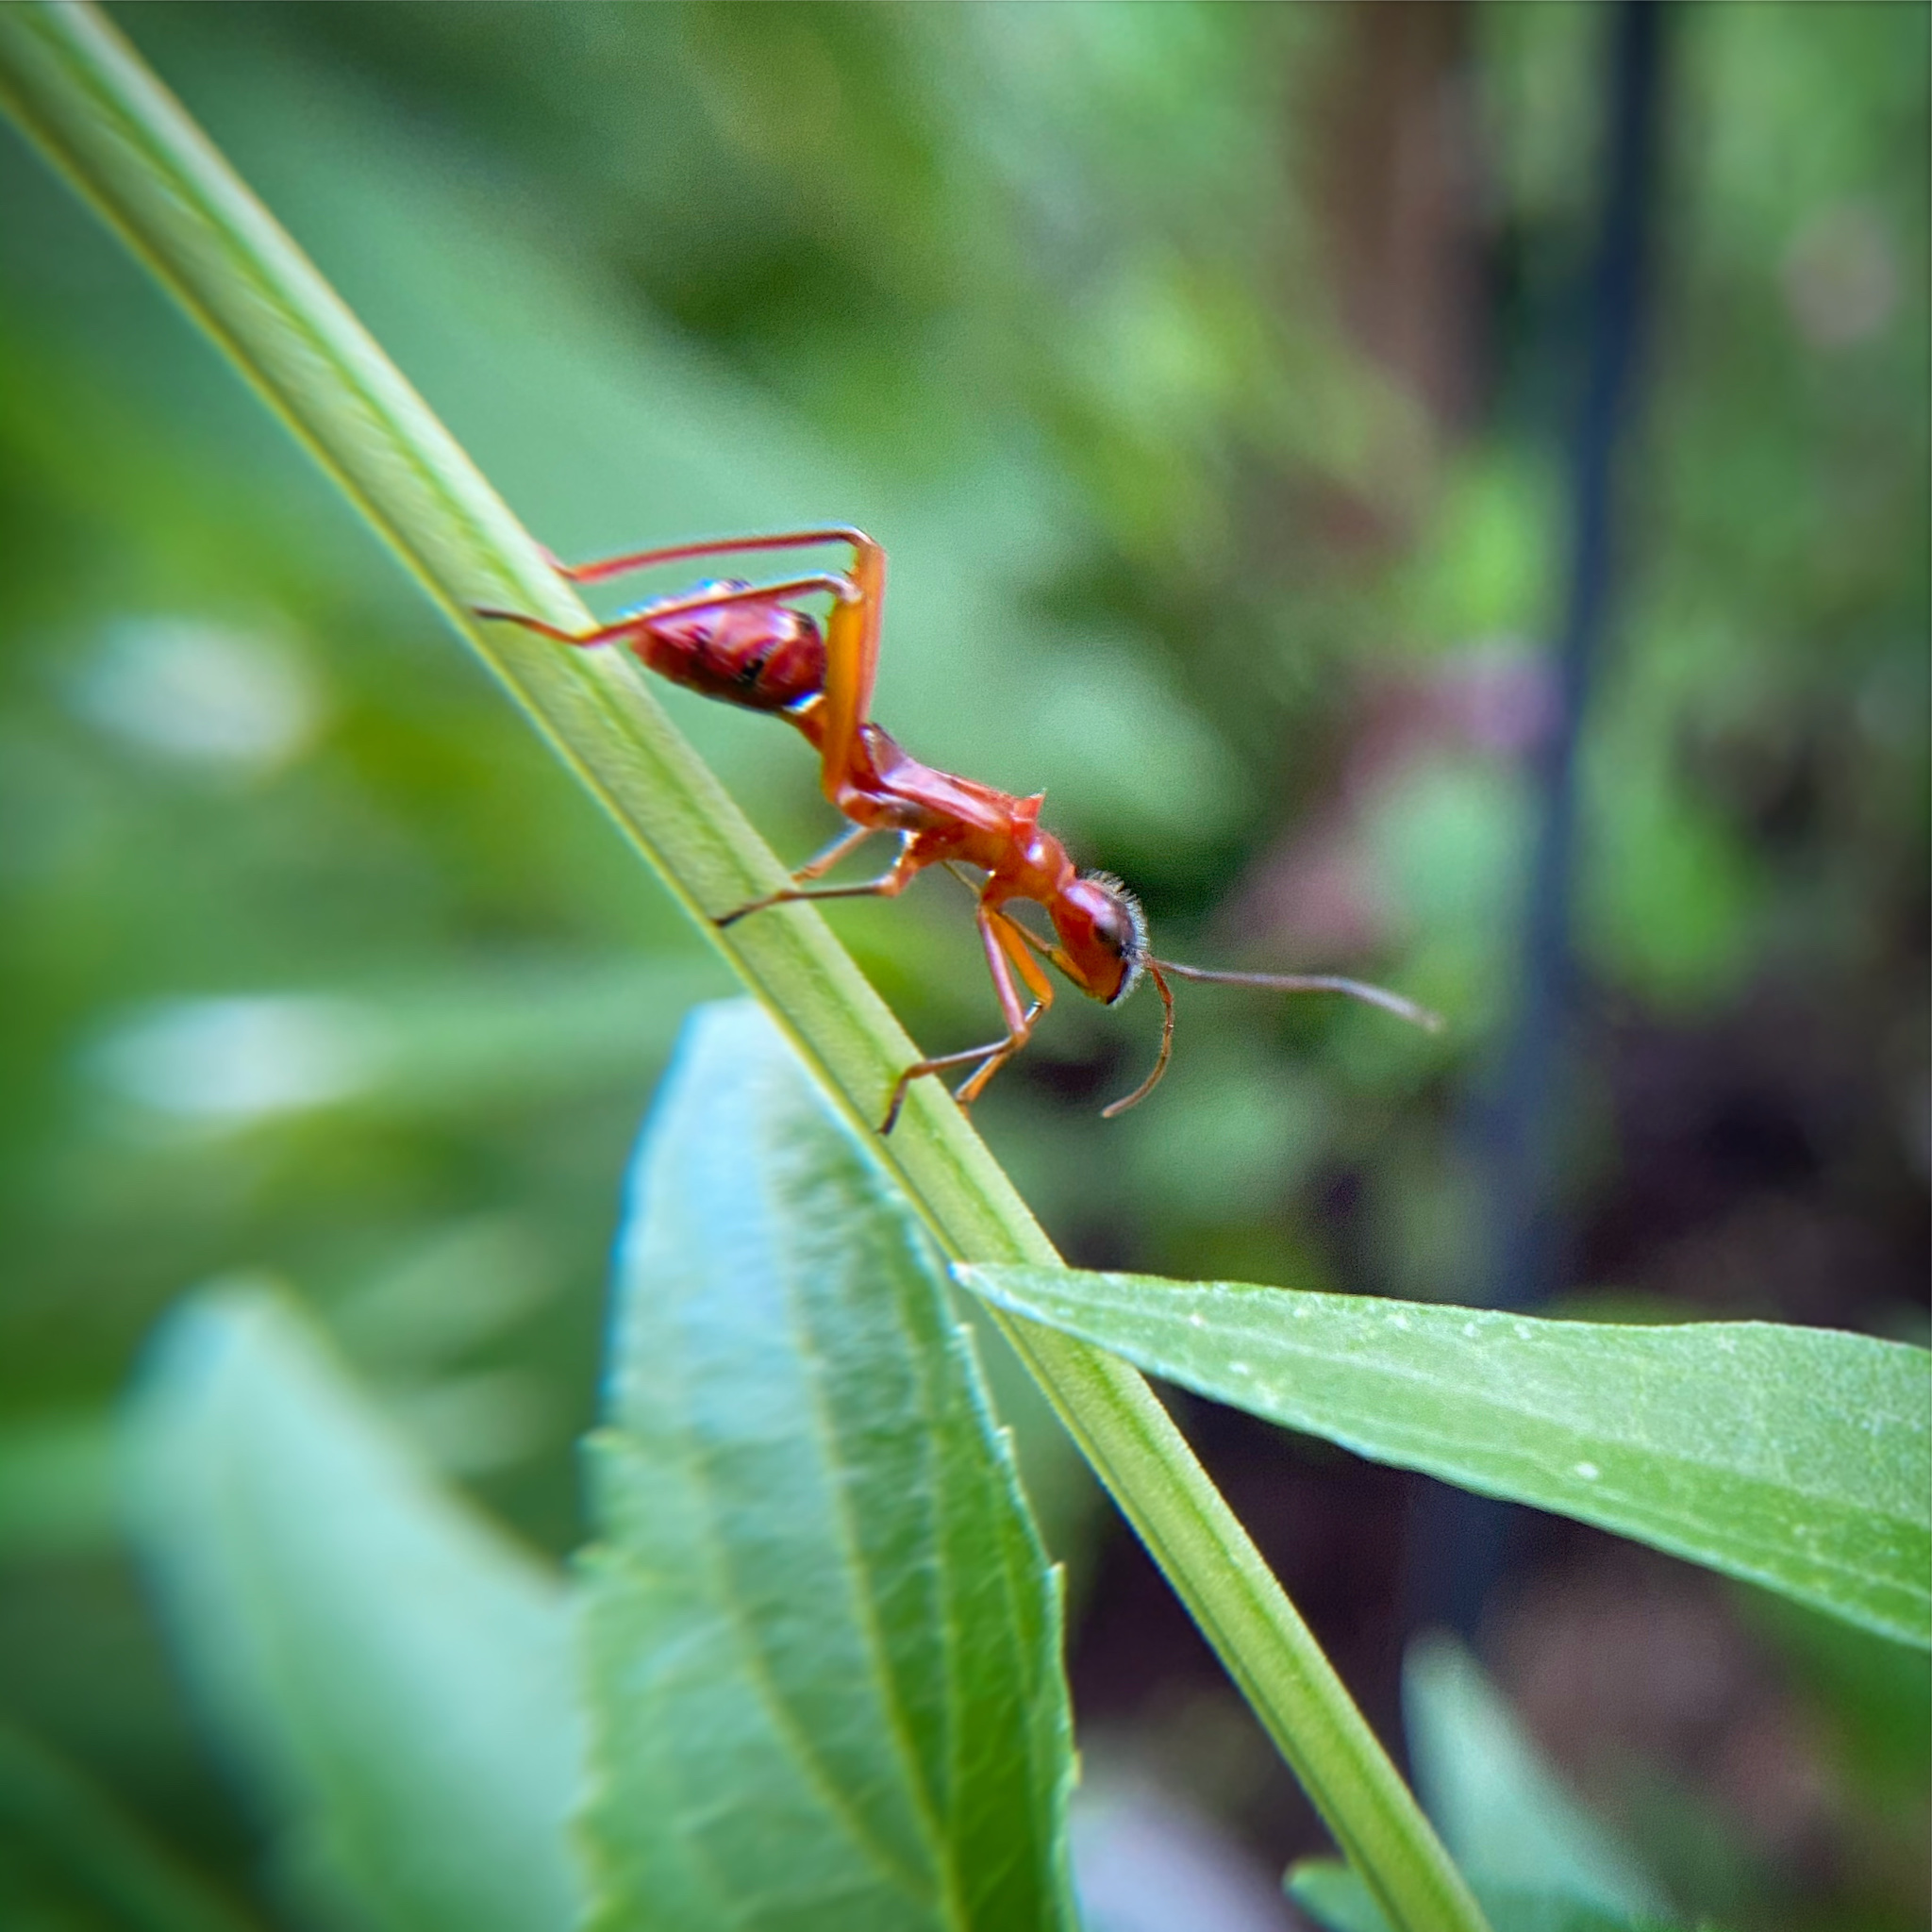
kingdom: Animalia
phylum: Arthropoda
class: Insecta
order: Hemiptera
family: Alydidae
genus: Hyalymenus
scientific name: Hyalymenus tarsatus
